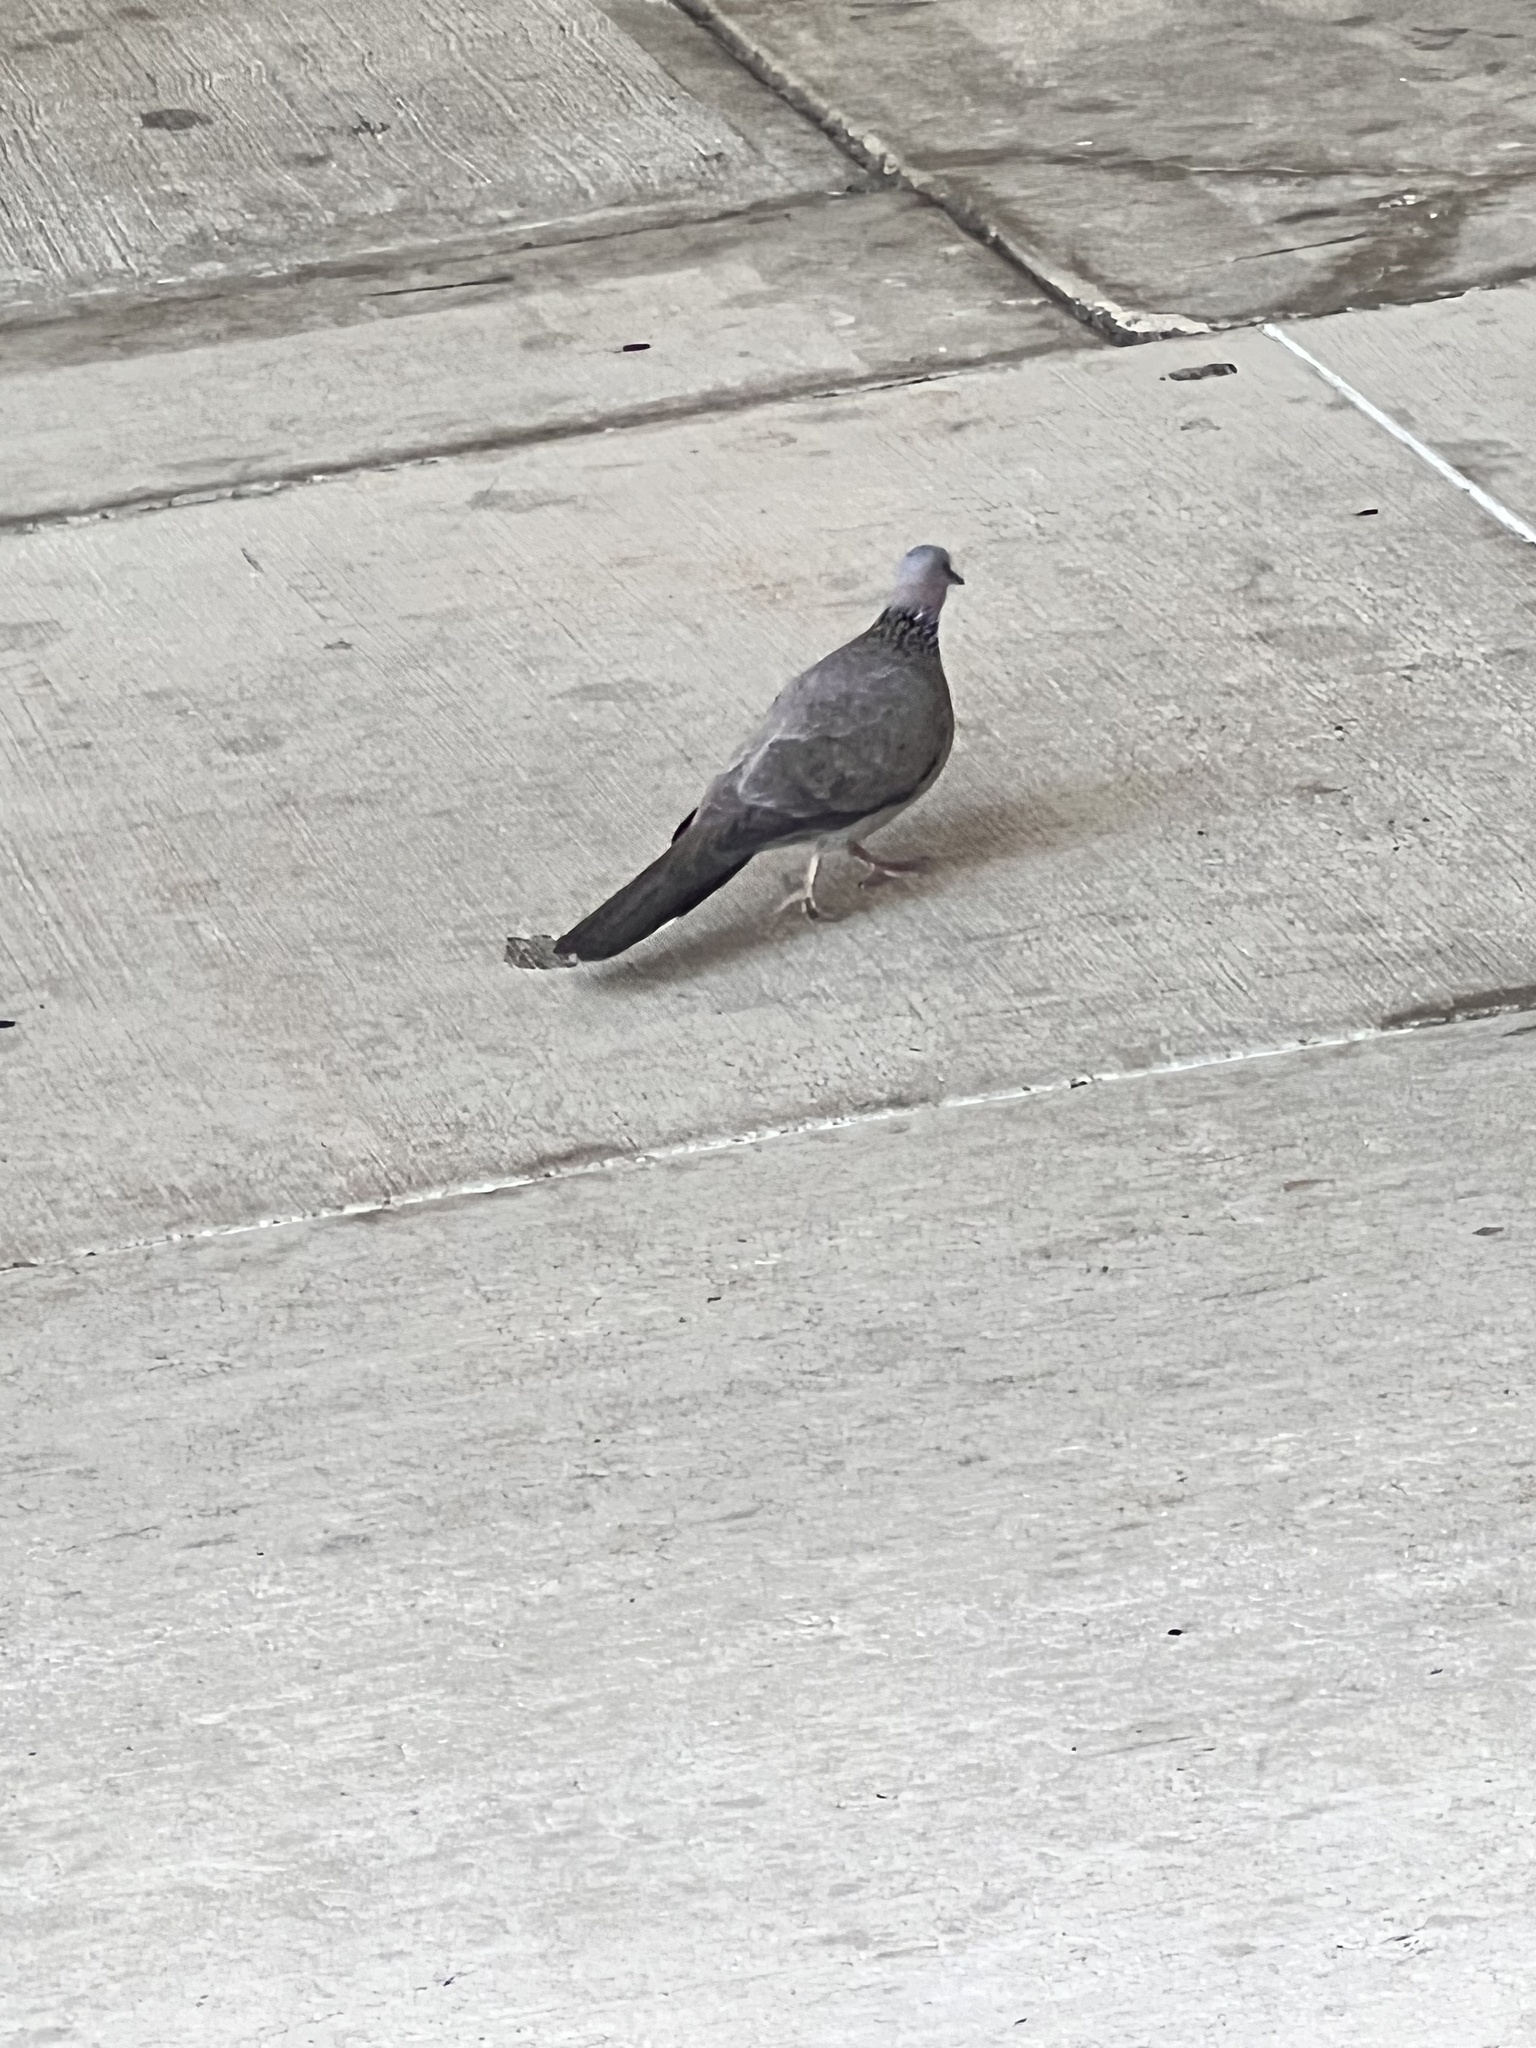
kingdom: Animalia
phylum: Chordata
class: Aves
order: Columbiformes
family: Columbidae
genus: Spilopelia
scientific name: Spilopelia chinensis
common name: Spotted dove
